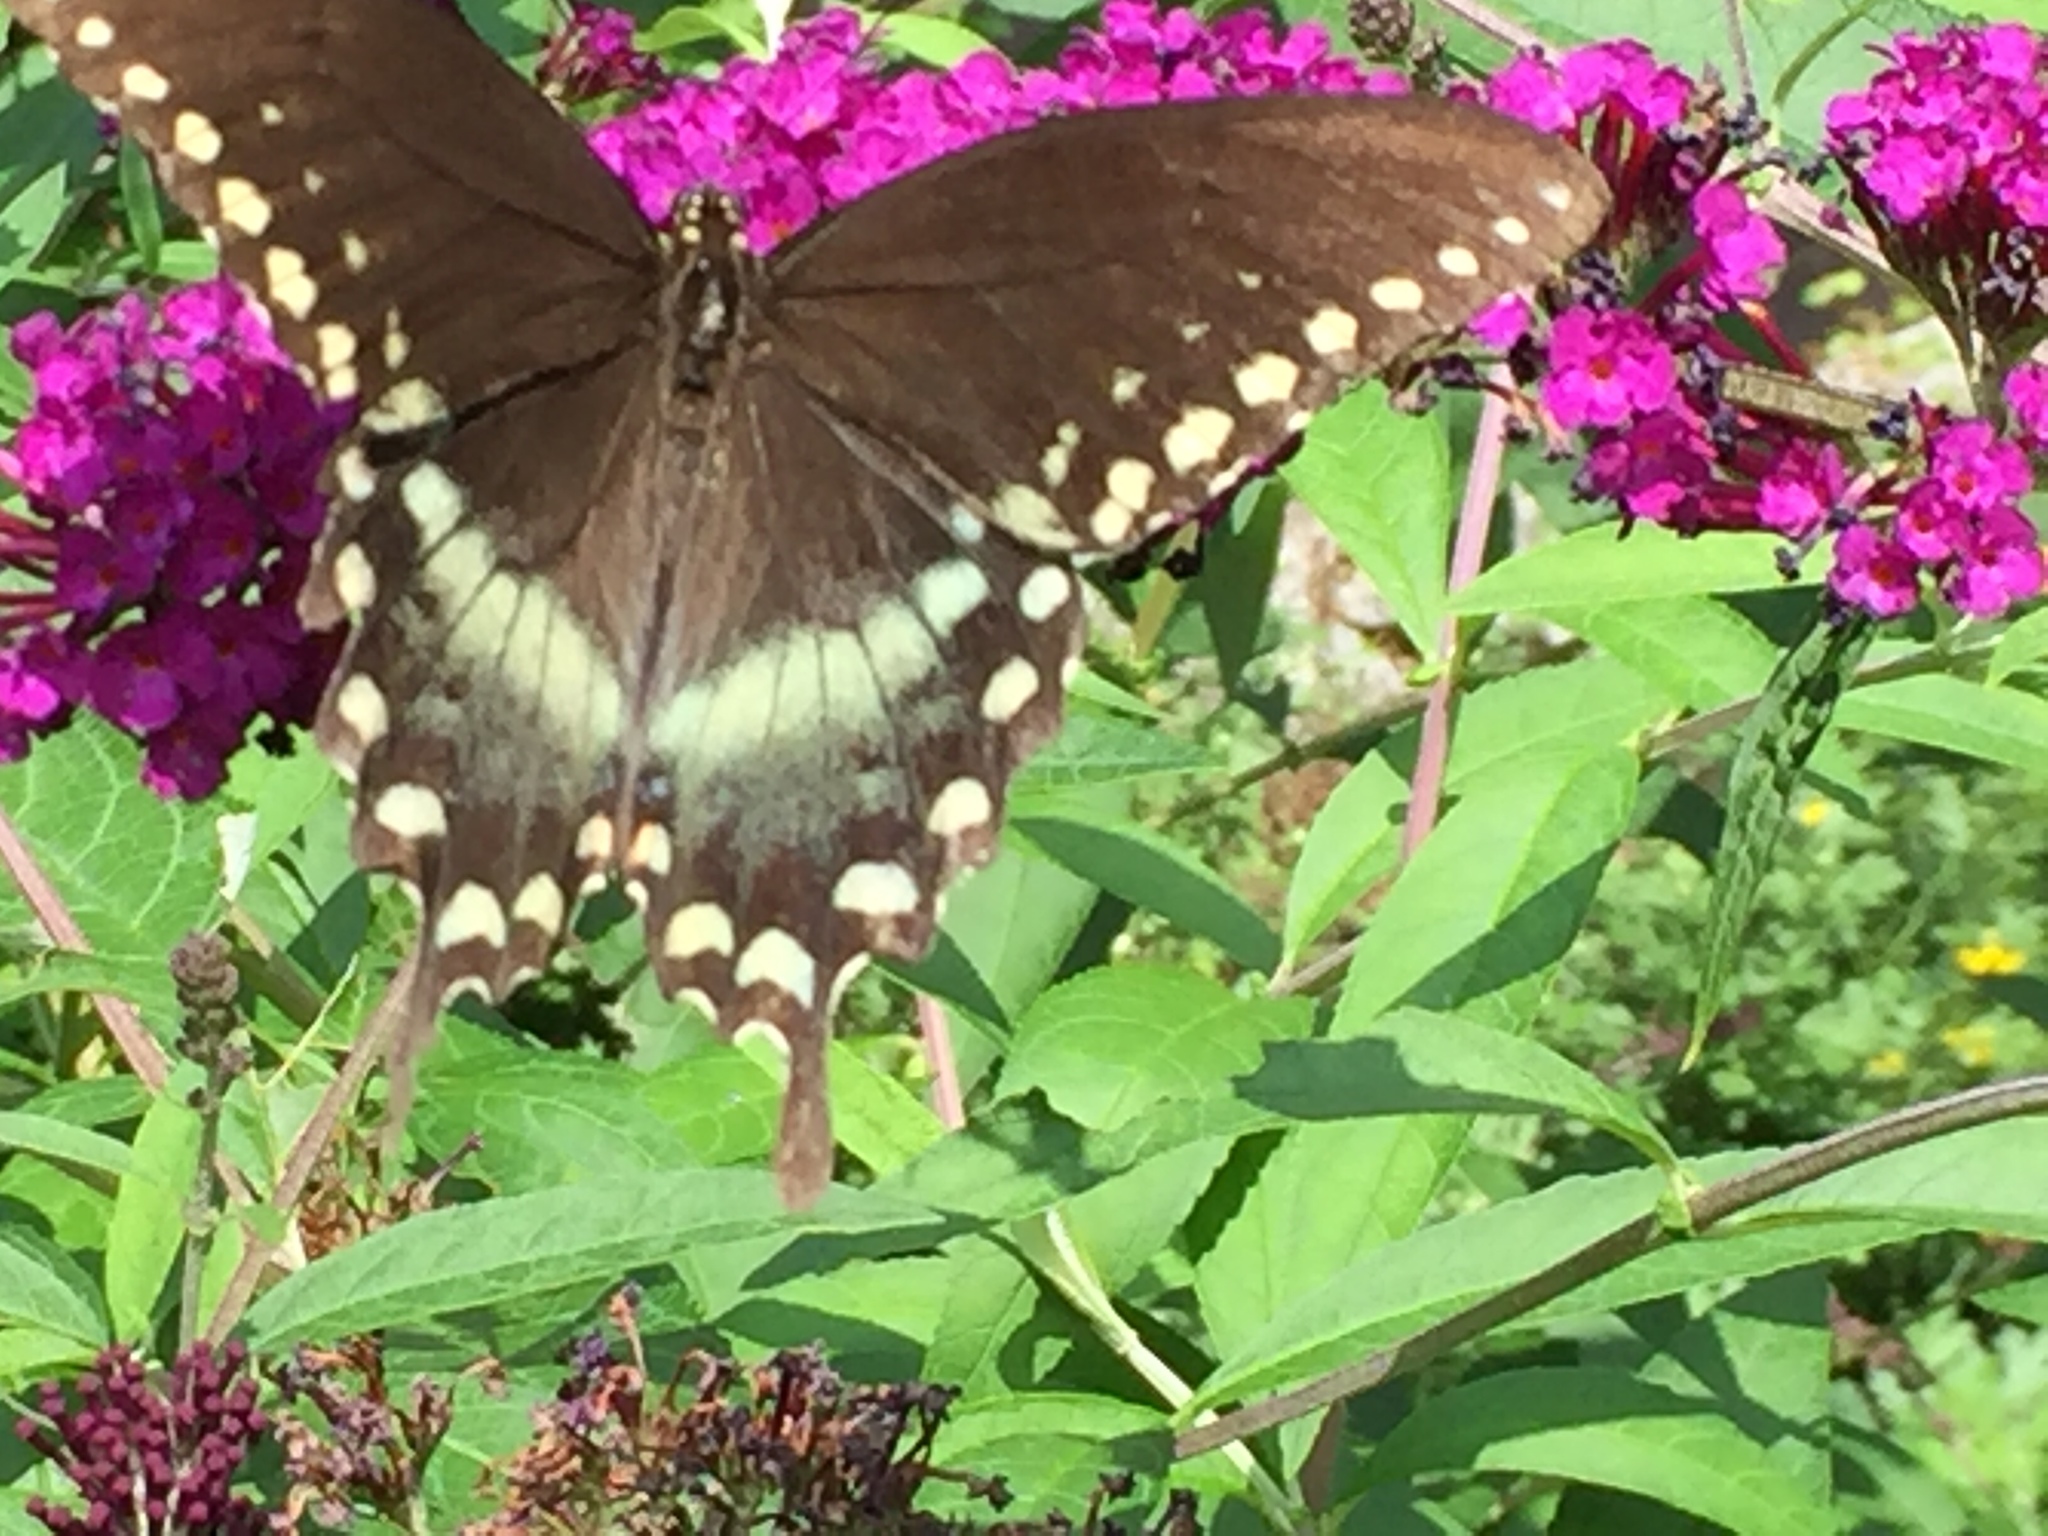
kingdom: Animalia
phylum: Arthropoda
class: Insecta
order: Lepidoptera
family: Papilionidae
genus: Papilio
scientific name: Papilio troilus
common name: Spicebush swallowtail
